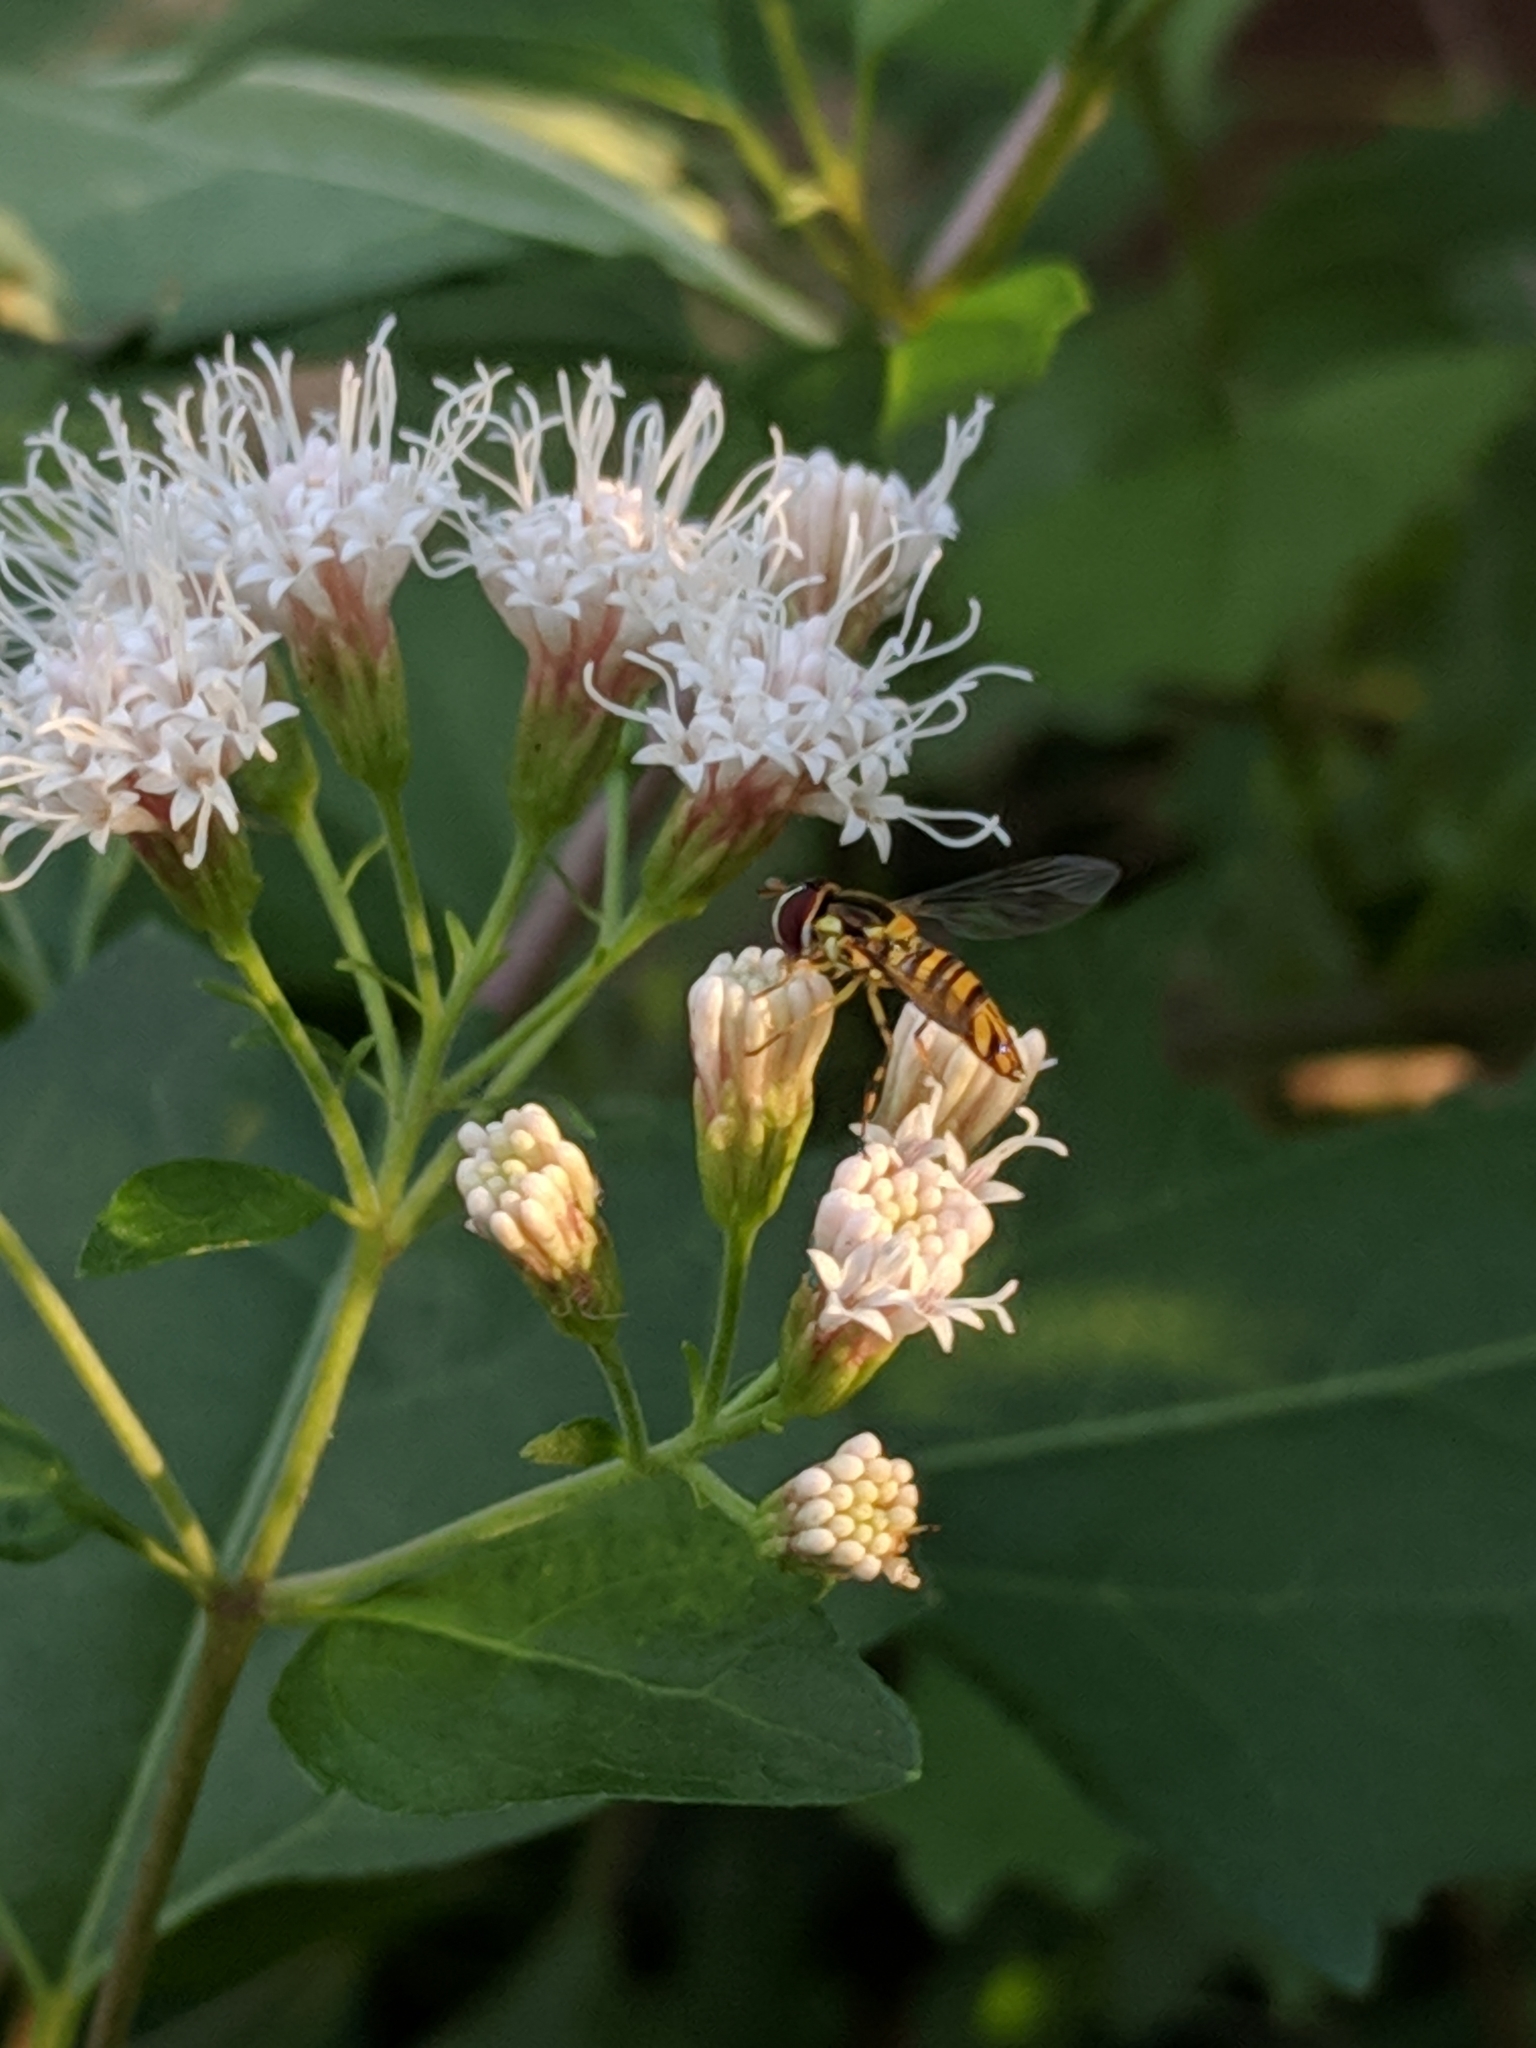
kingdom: Animalia
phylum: Arthropoda
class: Insecta
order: Diptera
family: Syrphidae
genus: Allograpta
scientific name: Allograpta obliqua
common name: Common oblique syrphid
